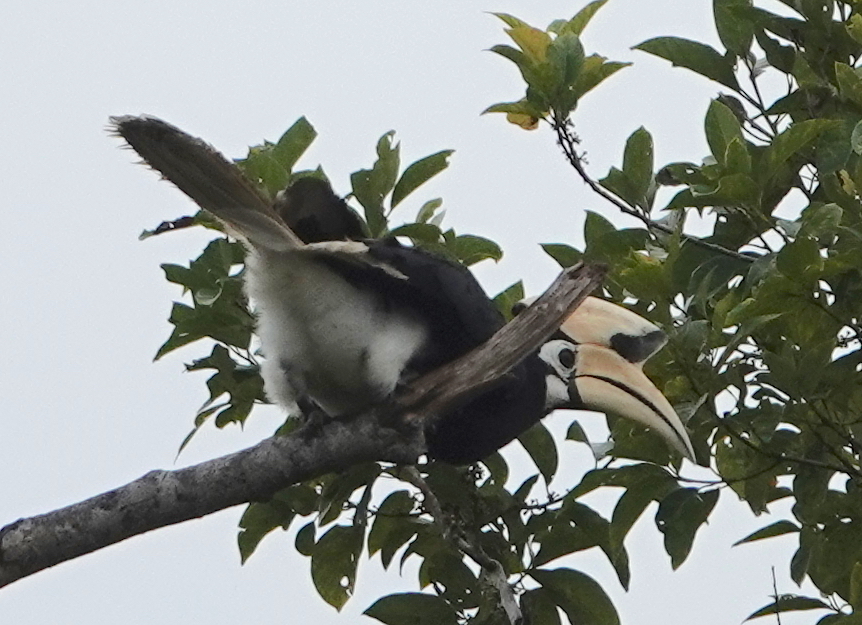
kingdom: Animalia
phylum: Chordata
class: Aves
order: Bucerotiformes
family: Bucerotidae
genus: Anthracoceros
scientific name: Anthracoceros albirostris
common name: Oriental pied-hornbill
